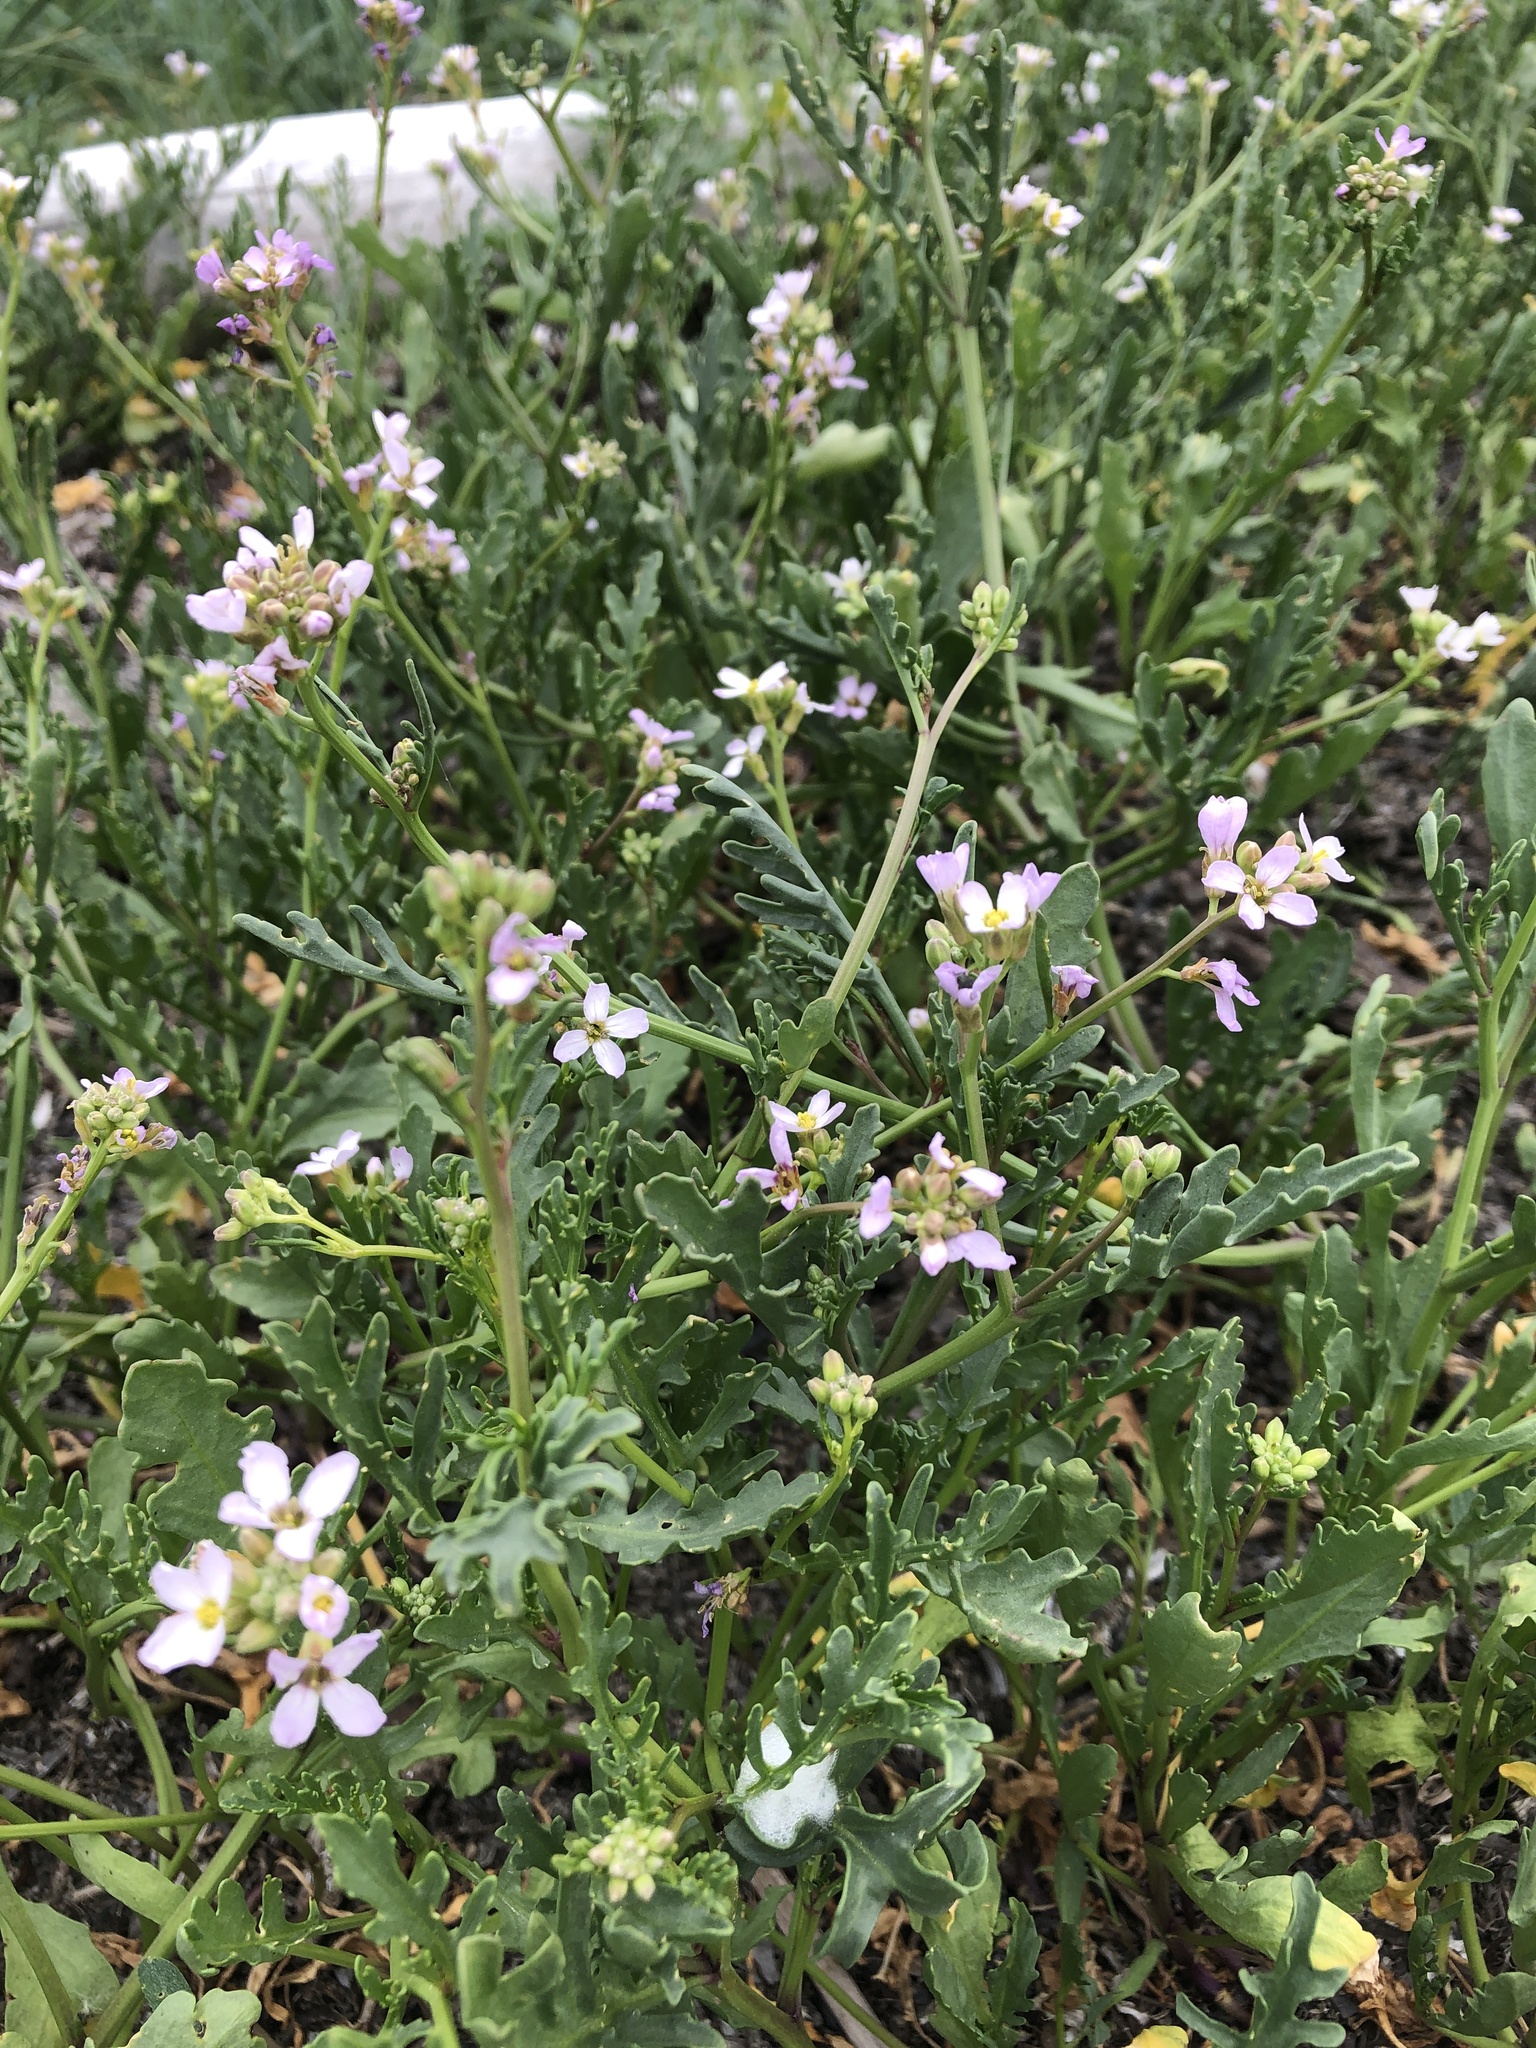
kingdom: Plantae
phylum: Tracheophyta
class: Magnoliopsida
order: Brassicales
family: Brassicaceae
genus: Cakile
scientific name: Cakile maritima
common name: Sea rocket
